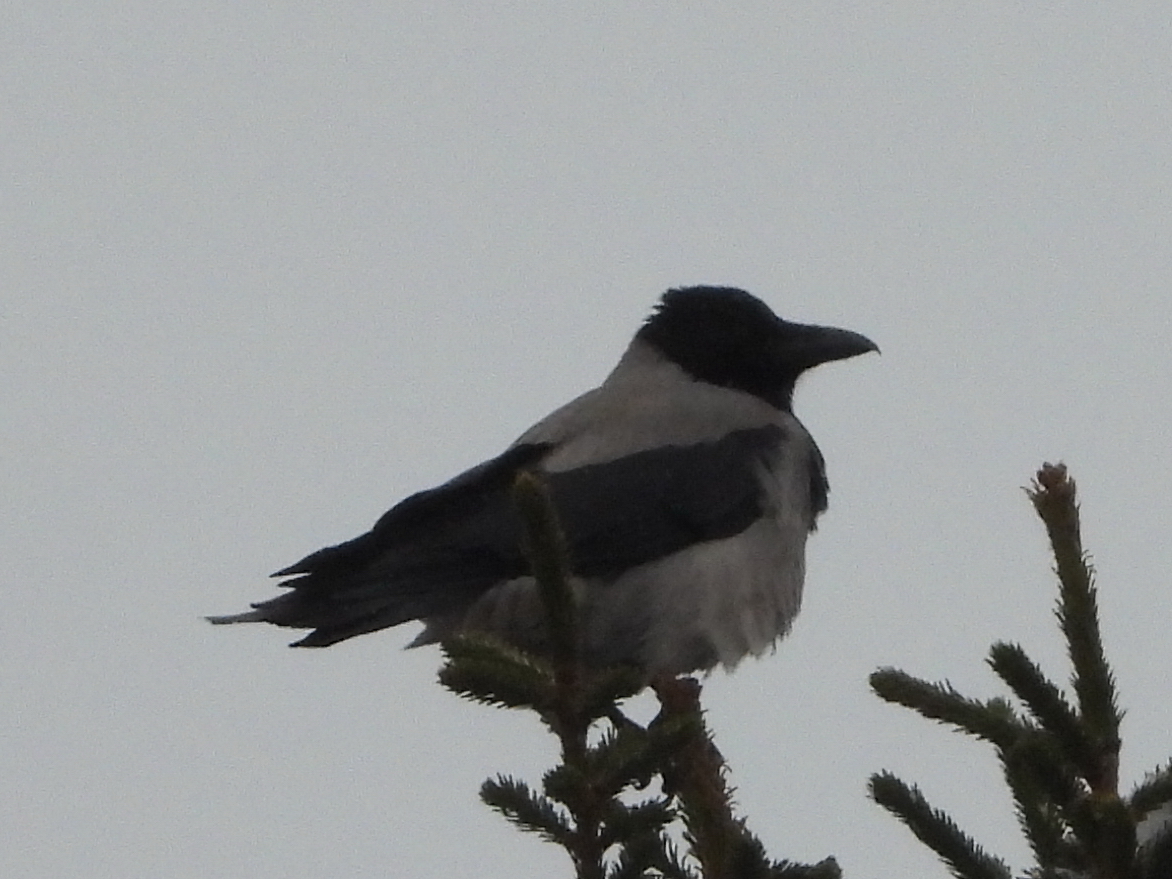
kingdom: Animalia
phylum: Chordata
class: Aves
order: Passeriformes
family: Corvidae
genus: Corvus
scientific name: Corvus cornix
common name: Hooded crow
